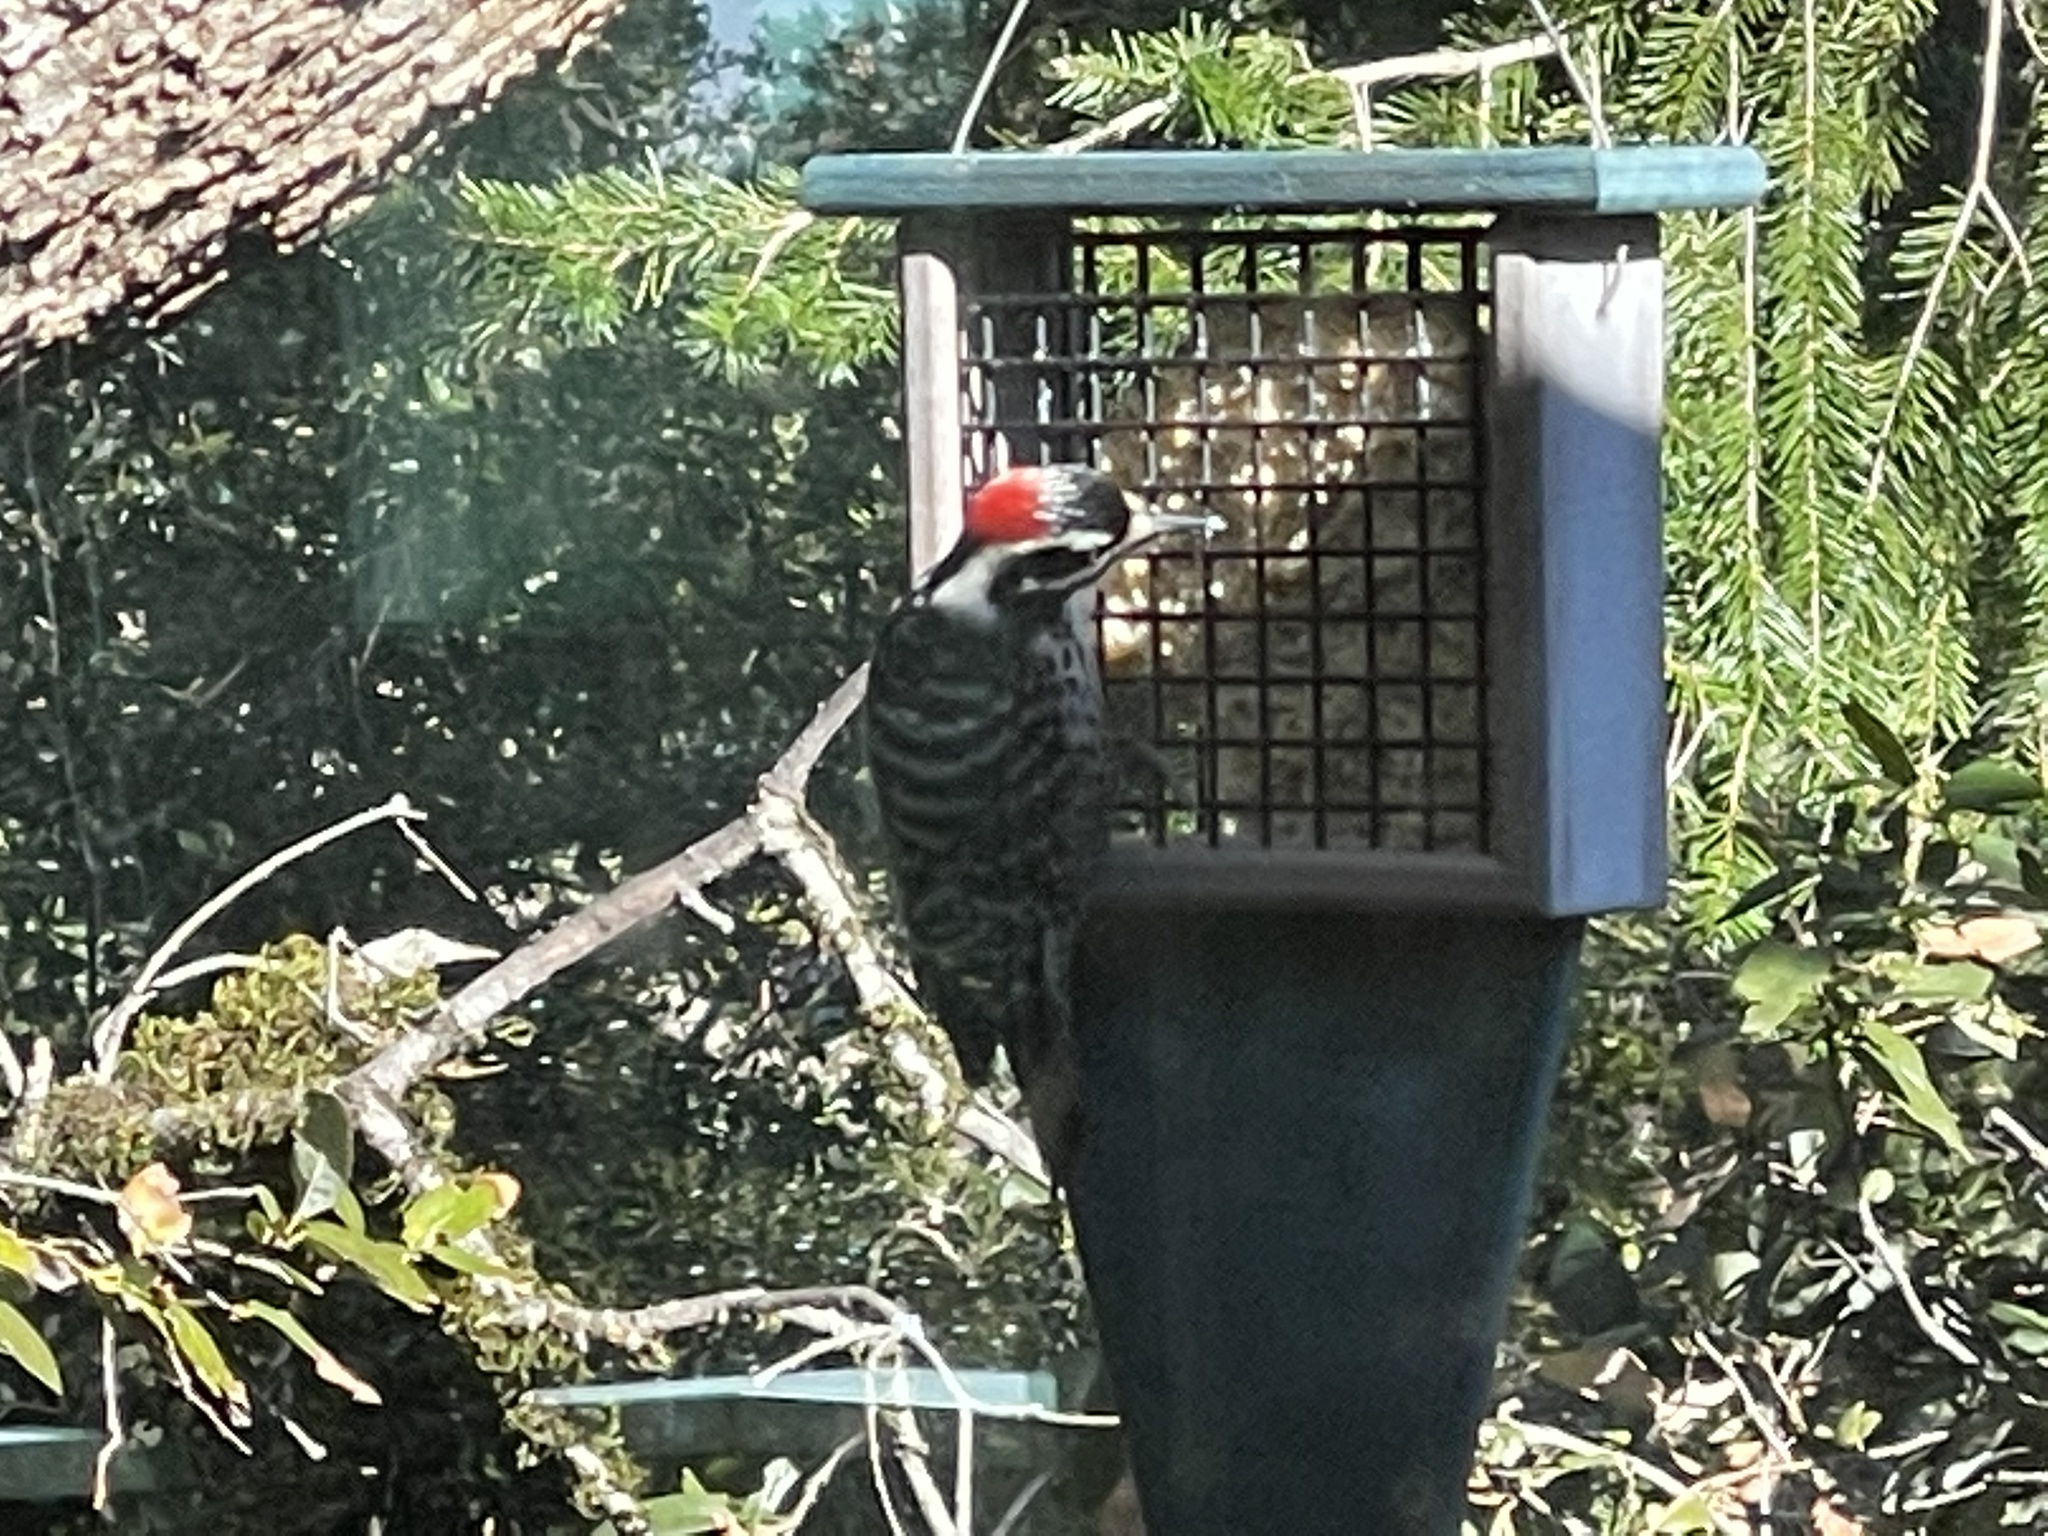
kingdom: Animalia
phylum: Chordata
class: Aves
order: Piciformes
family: Picidae
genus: Dryobates
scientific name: Dryobates nuttallii
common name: Nuttall's woodpecker
